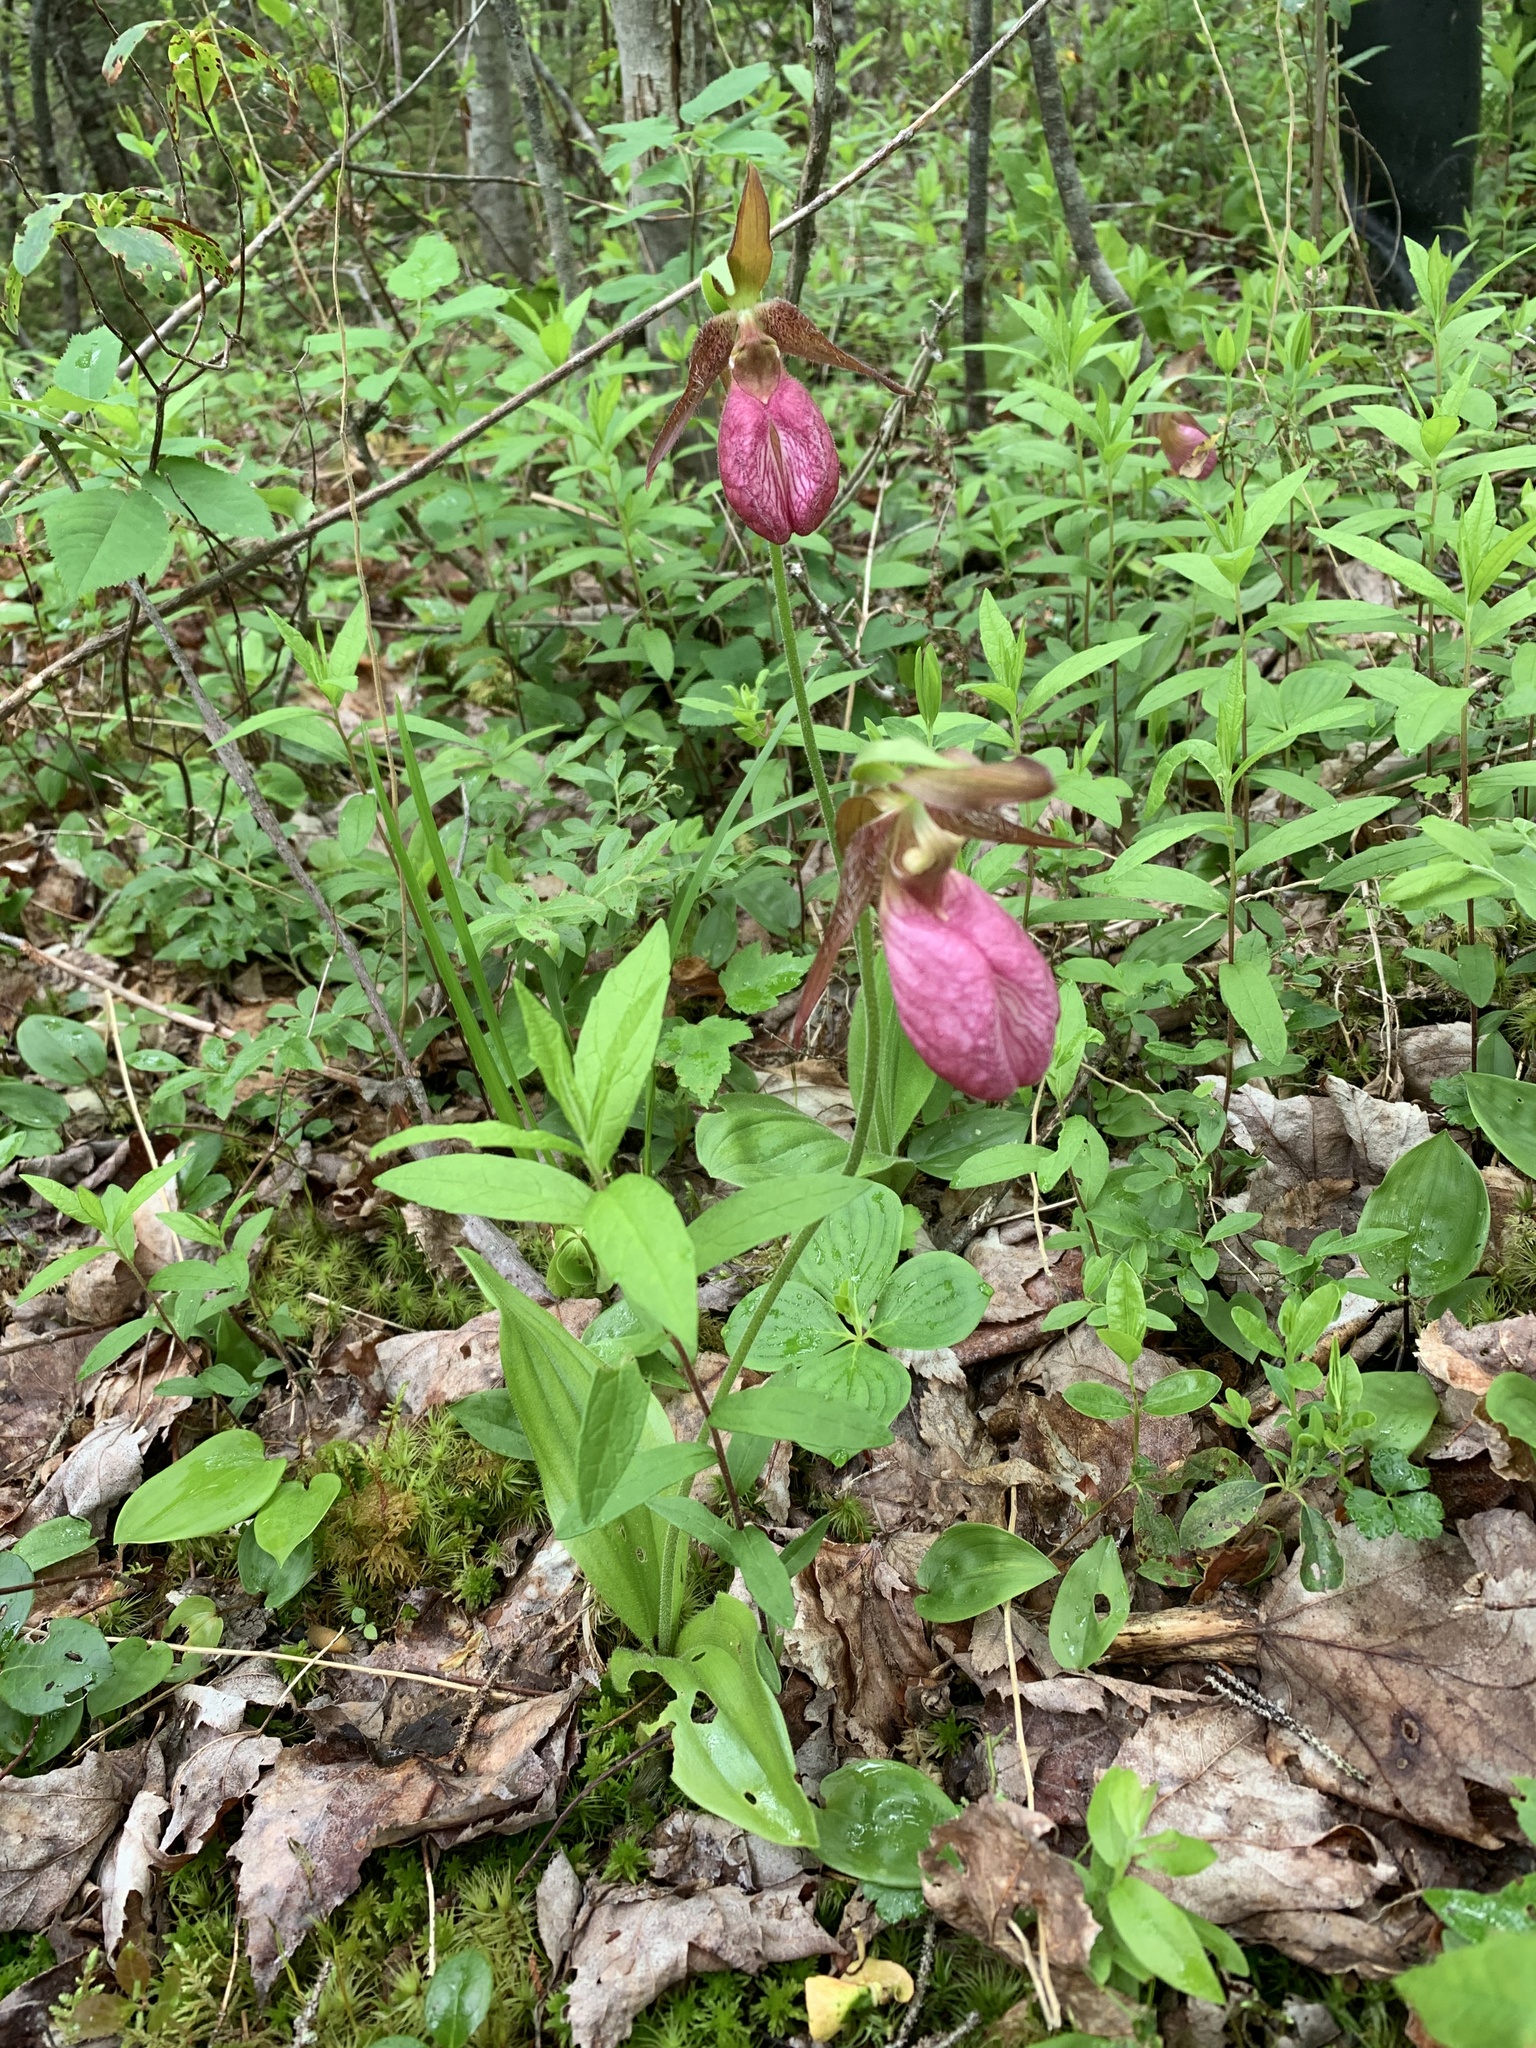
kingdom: Plantae
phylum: Tracheophyta
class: Liliopsida
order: Asparagales
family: Orchidaceae
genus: Cypripedium
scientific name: Cypripedium acaule
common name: Pink lady's-slipper
